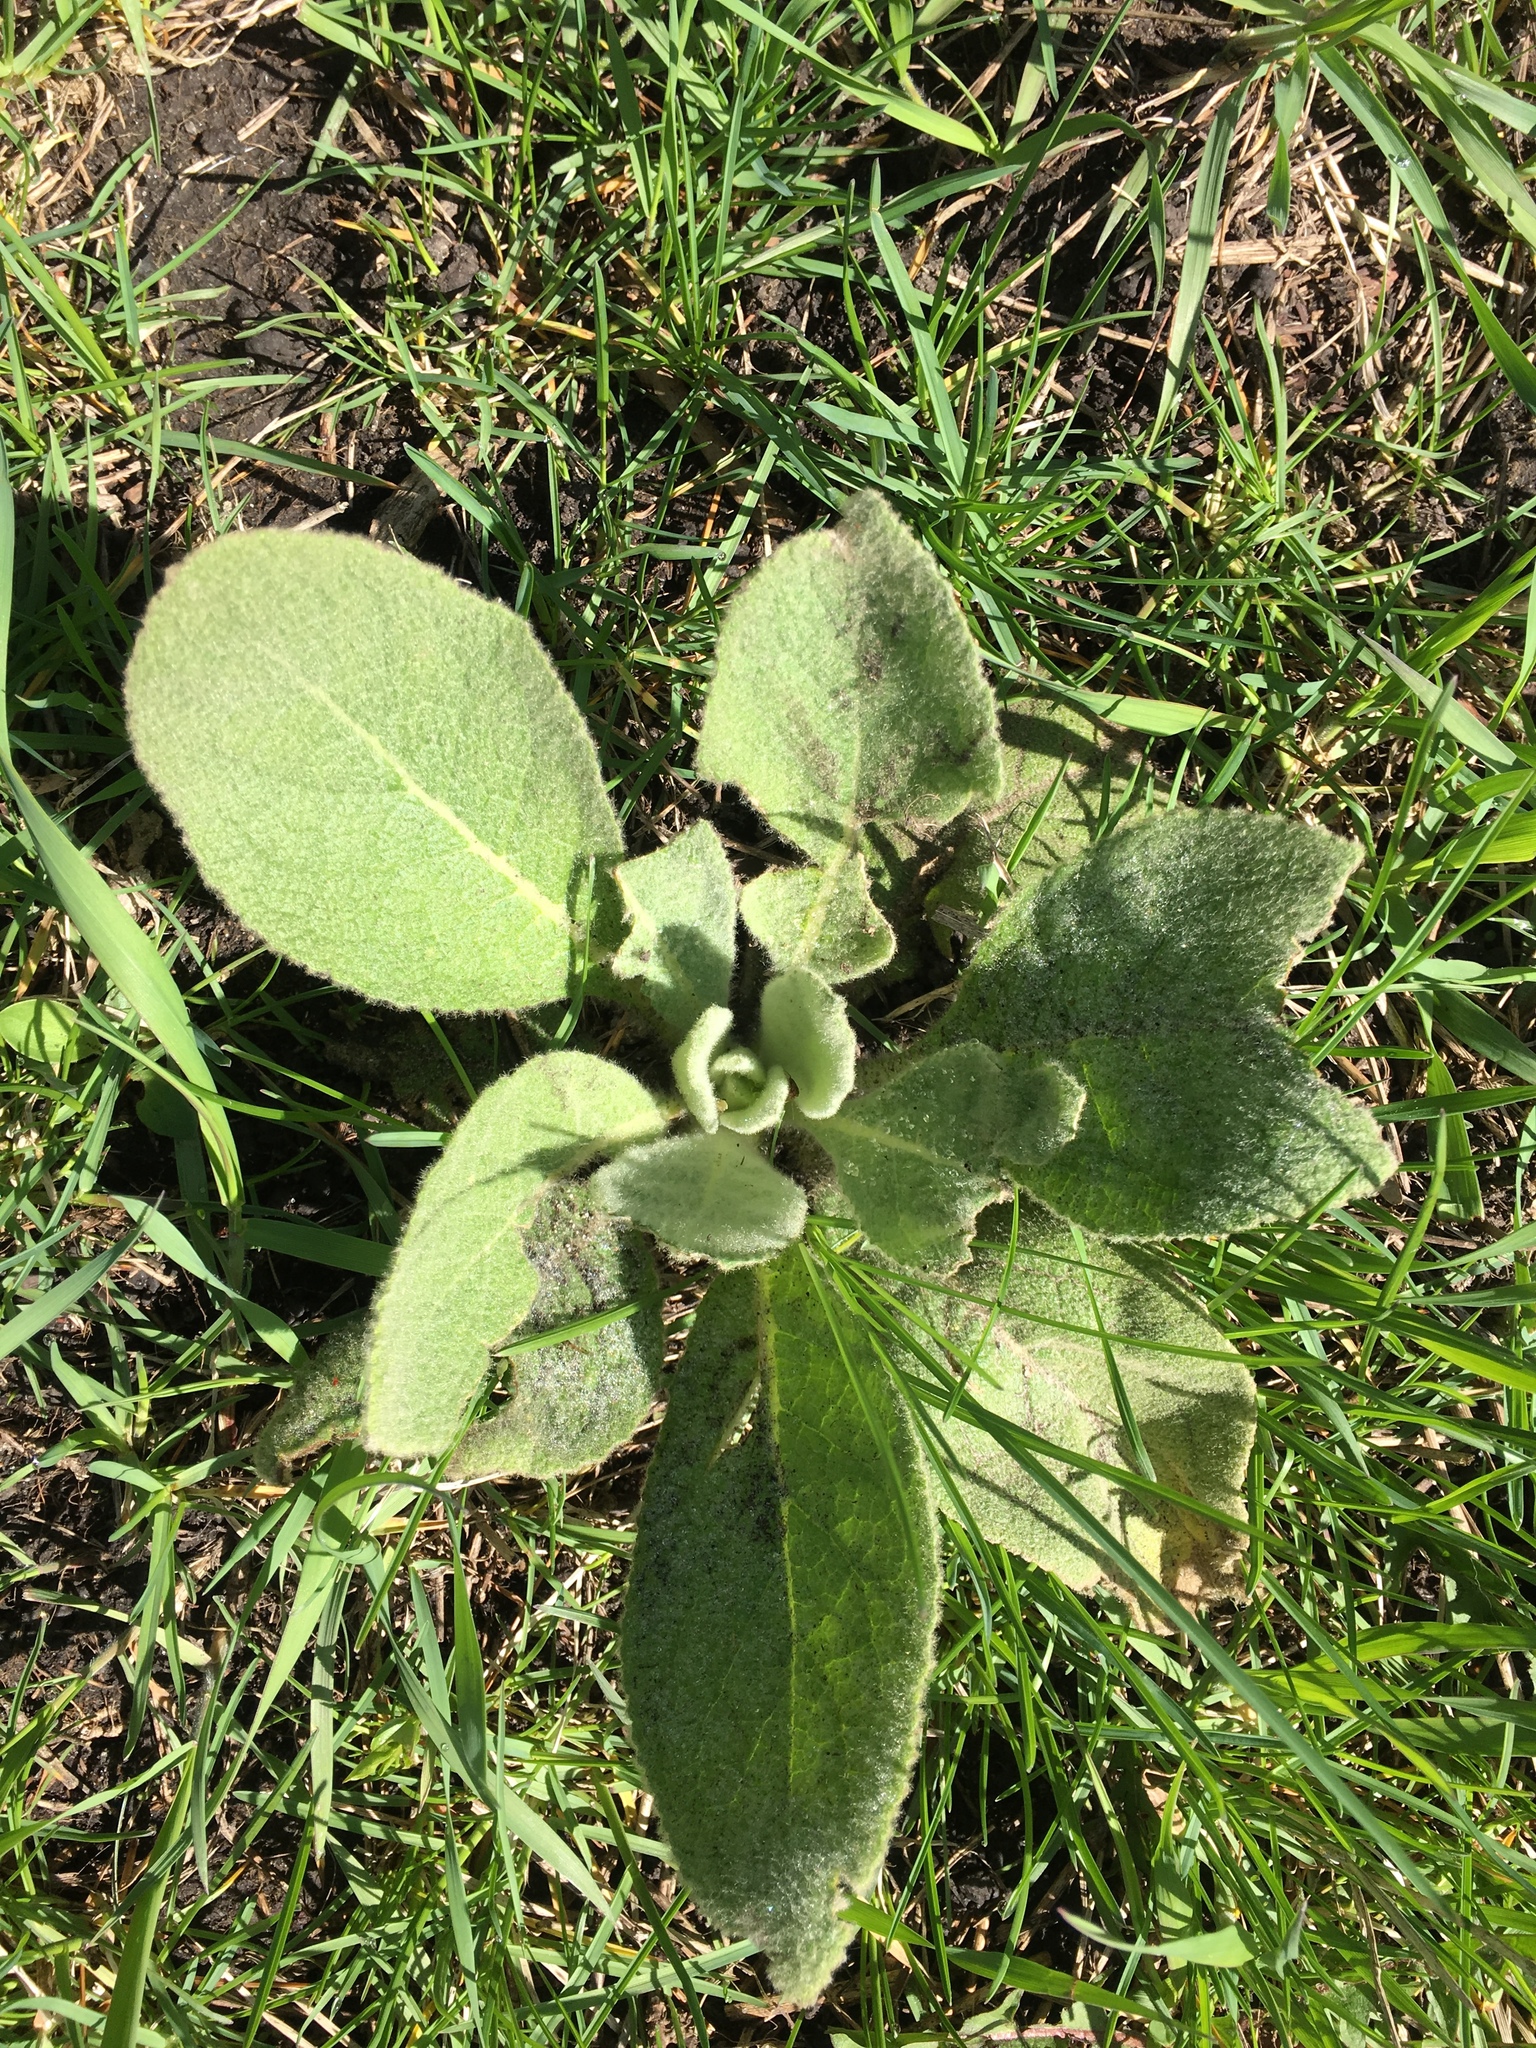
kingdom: Plantae
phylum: Tracheophyta
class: Magnoliopsida
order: Lamiales
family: Scrophulariaceae
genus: Verbascum
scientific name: Verbascum thapsus
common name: Common mullein
